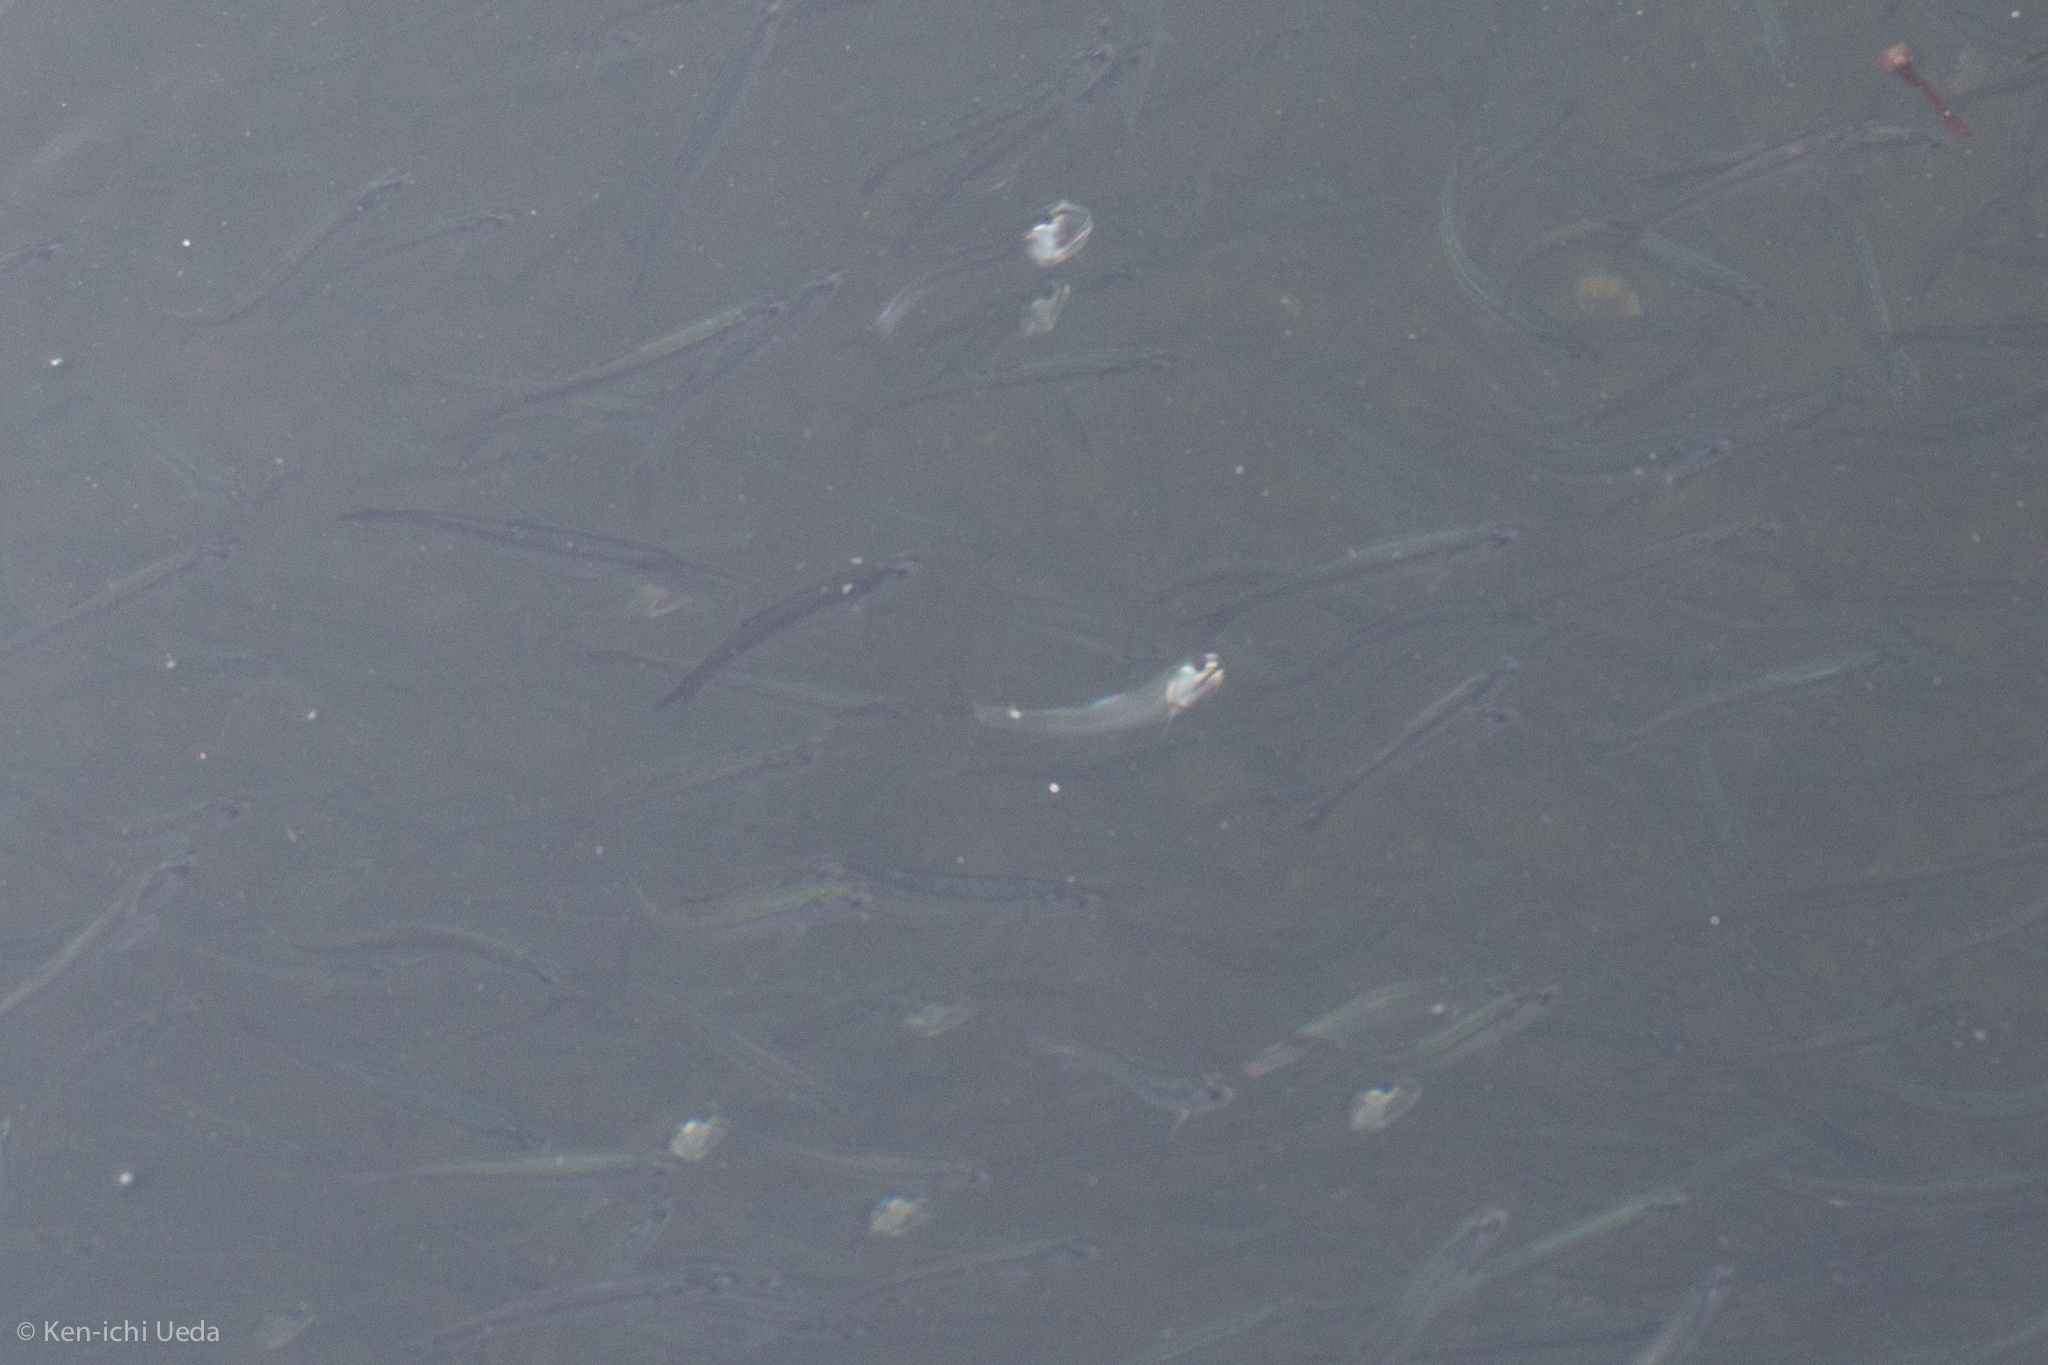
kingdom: Animalia
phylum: Chordata
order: Clupeiformes
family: Engraulidae
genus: Engraulis
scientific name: Engraulis mordax
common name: Northern anchovy
